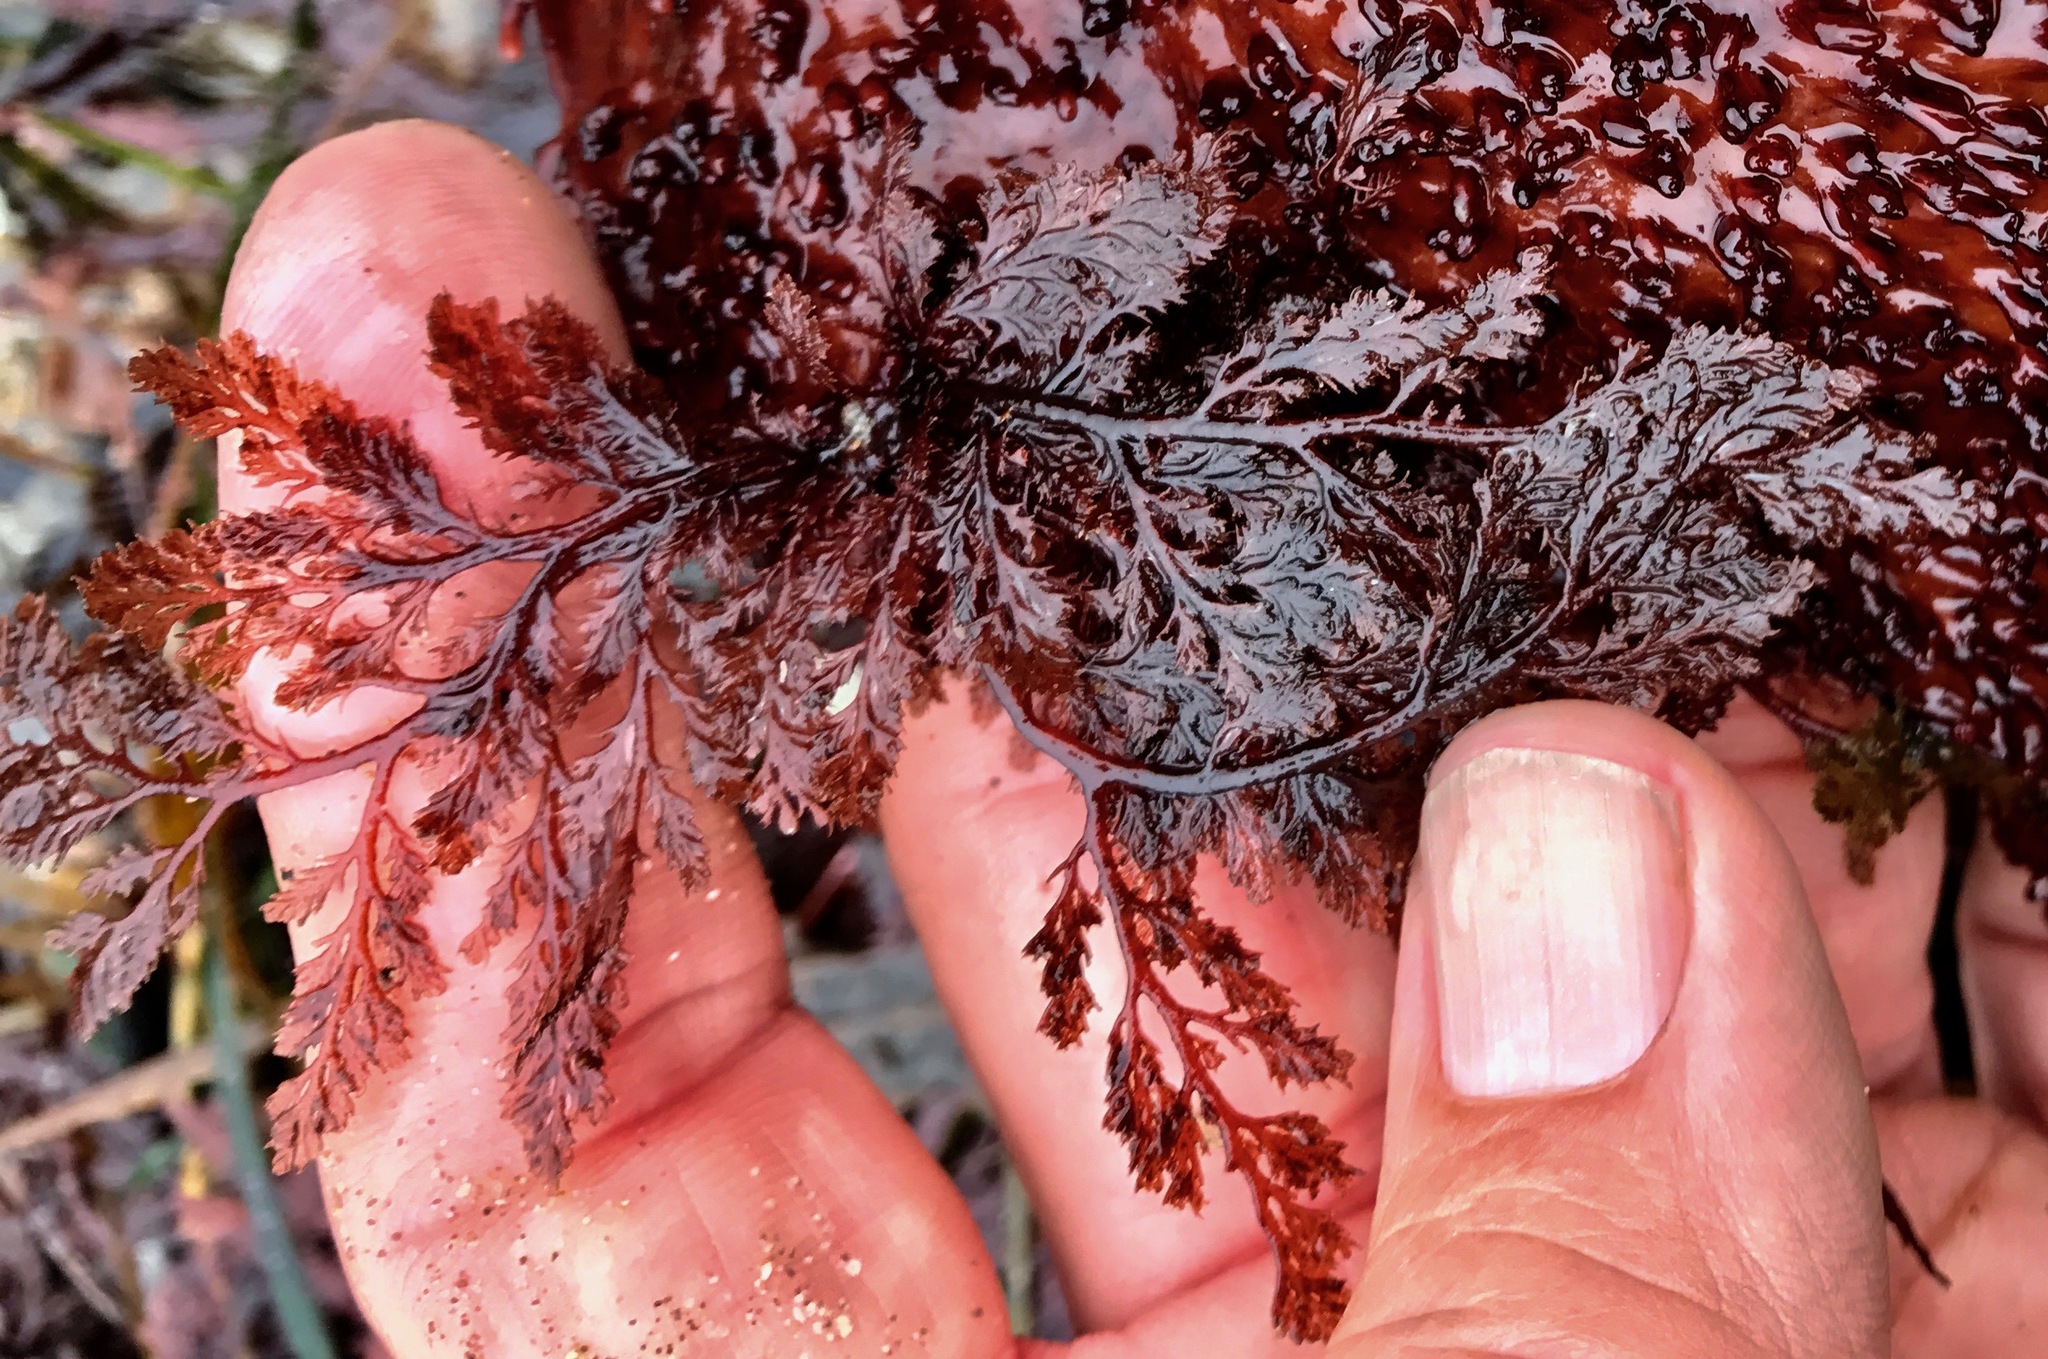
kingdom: Plantae
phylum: Rhodophyta
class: Florideophyceae
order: Ceramiales
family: Ceramiaceae
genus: Microcladia
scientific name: Microcladia coulteri
